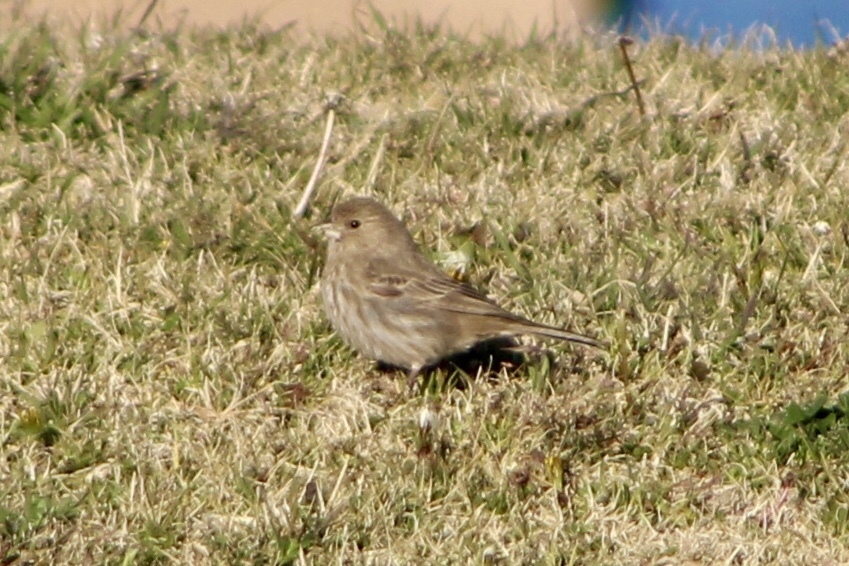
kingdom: Animalia
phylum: Chordata
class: Aves
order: Passeriformes
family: Fringillidae
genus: Haemorhous
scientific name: Haemorhous mexicanus
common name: House finch
